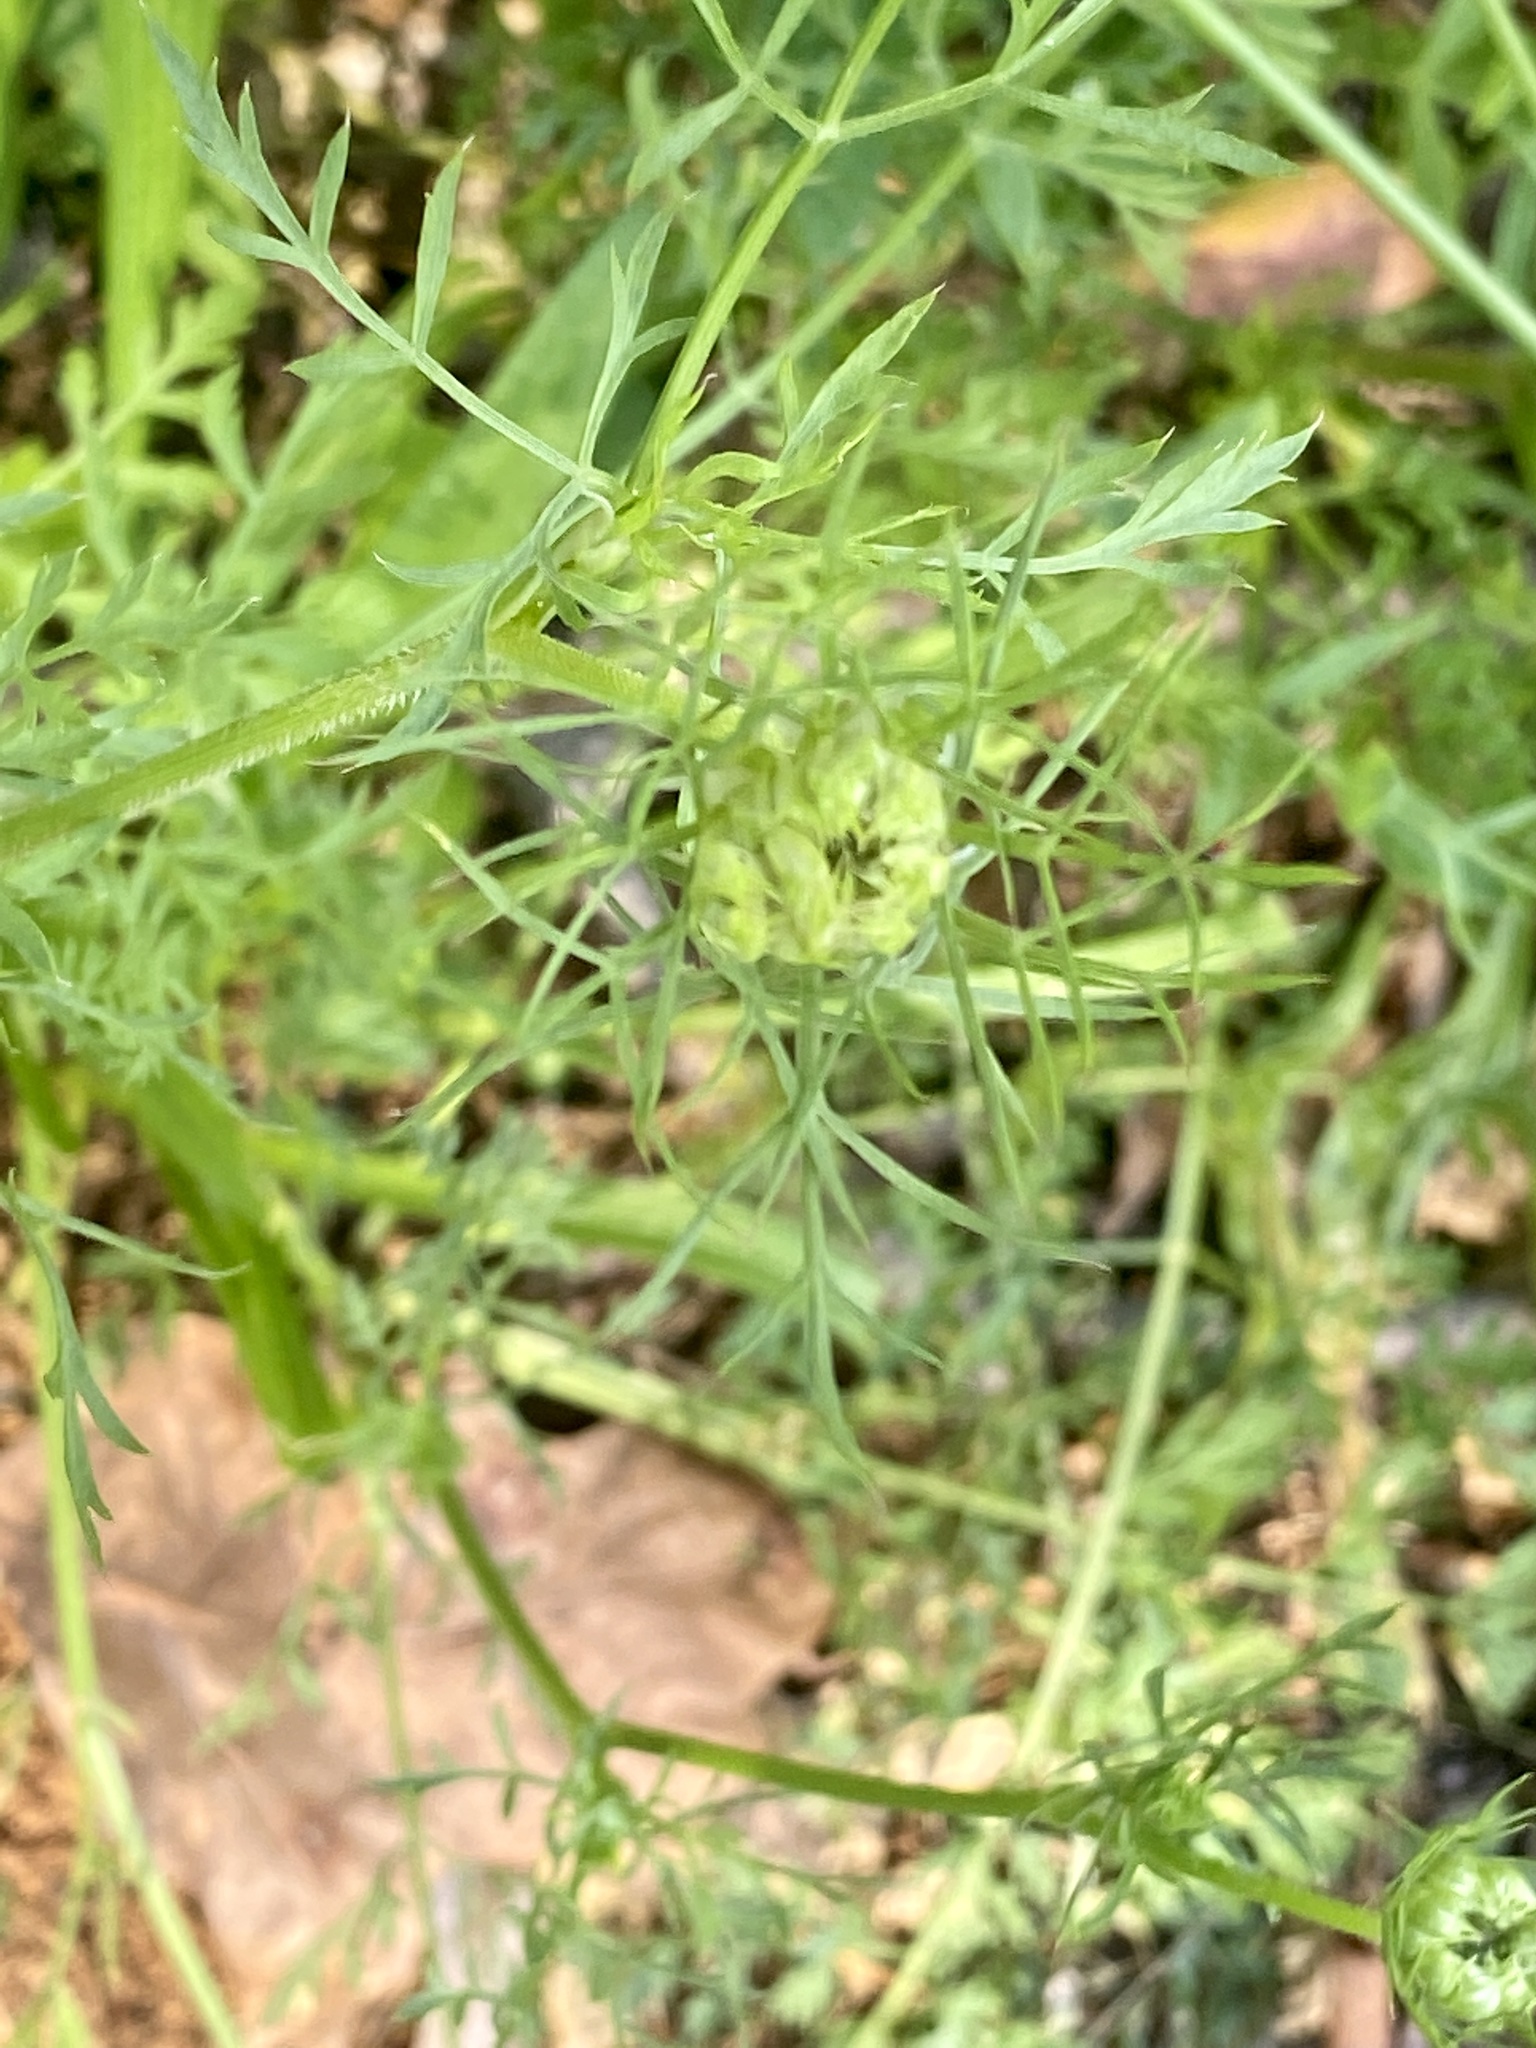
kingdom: Plantae
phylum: Tracheophyta
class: Magnoliopsida
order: Apiales
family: Apiaceae
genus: Daucus
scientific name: Daucus carota
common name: Wild carrot
